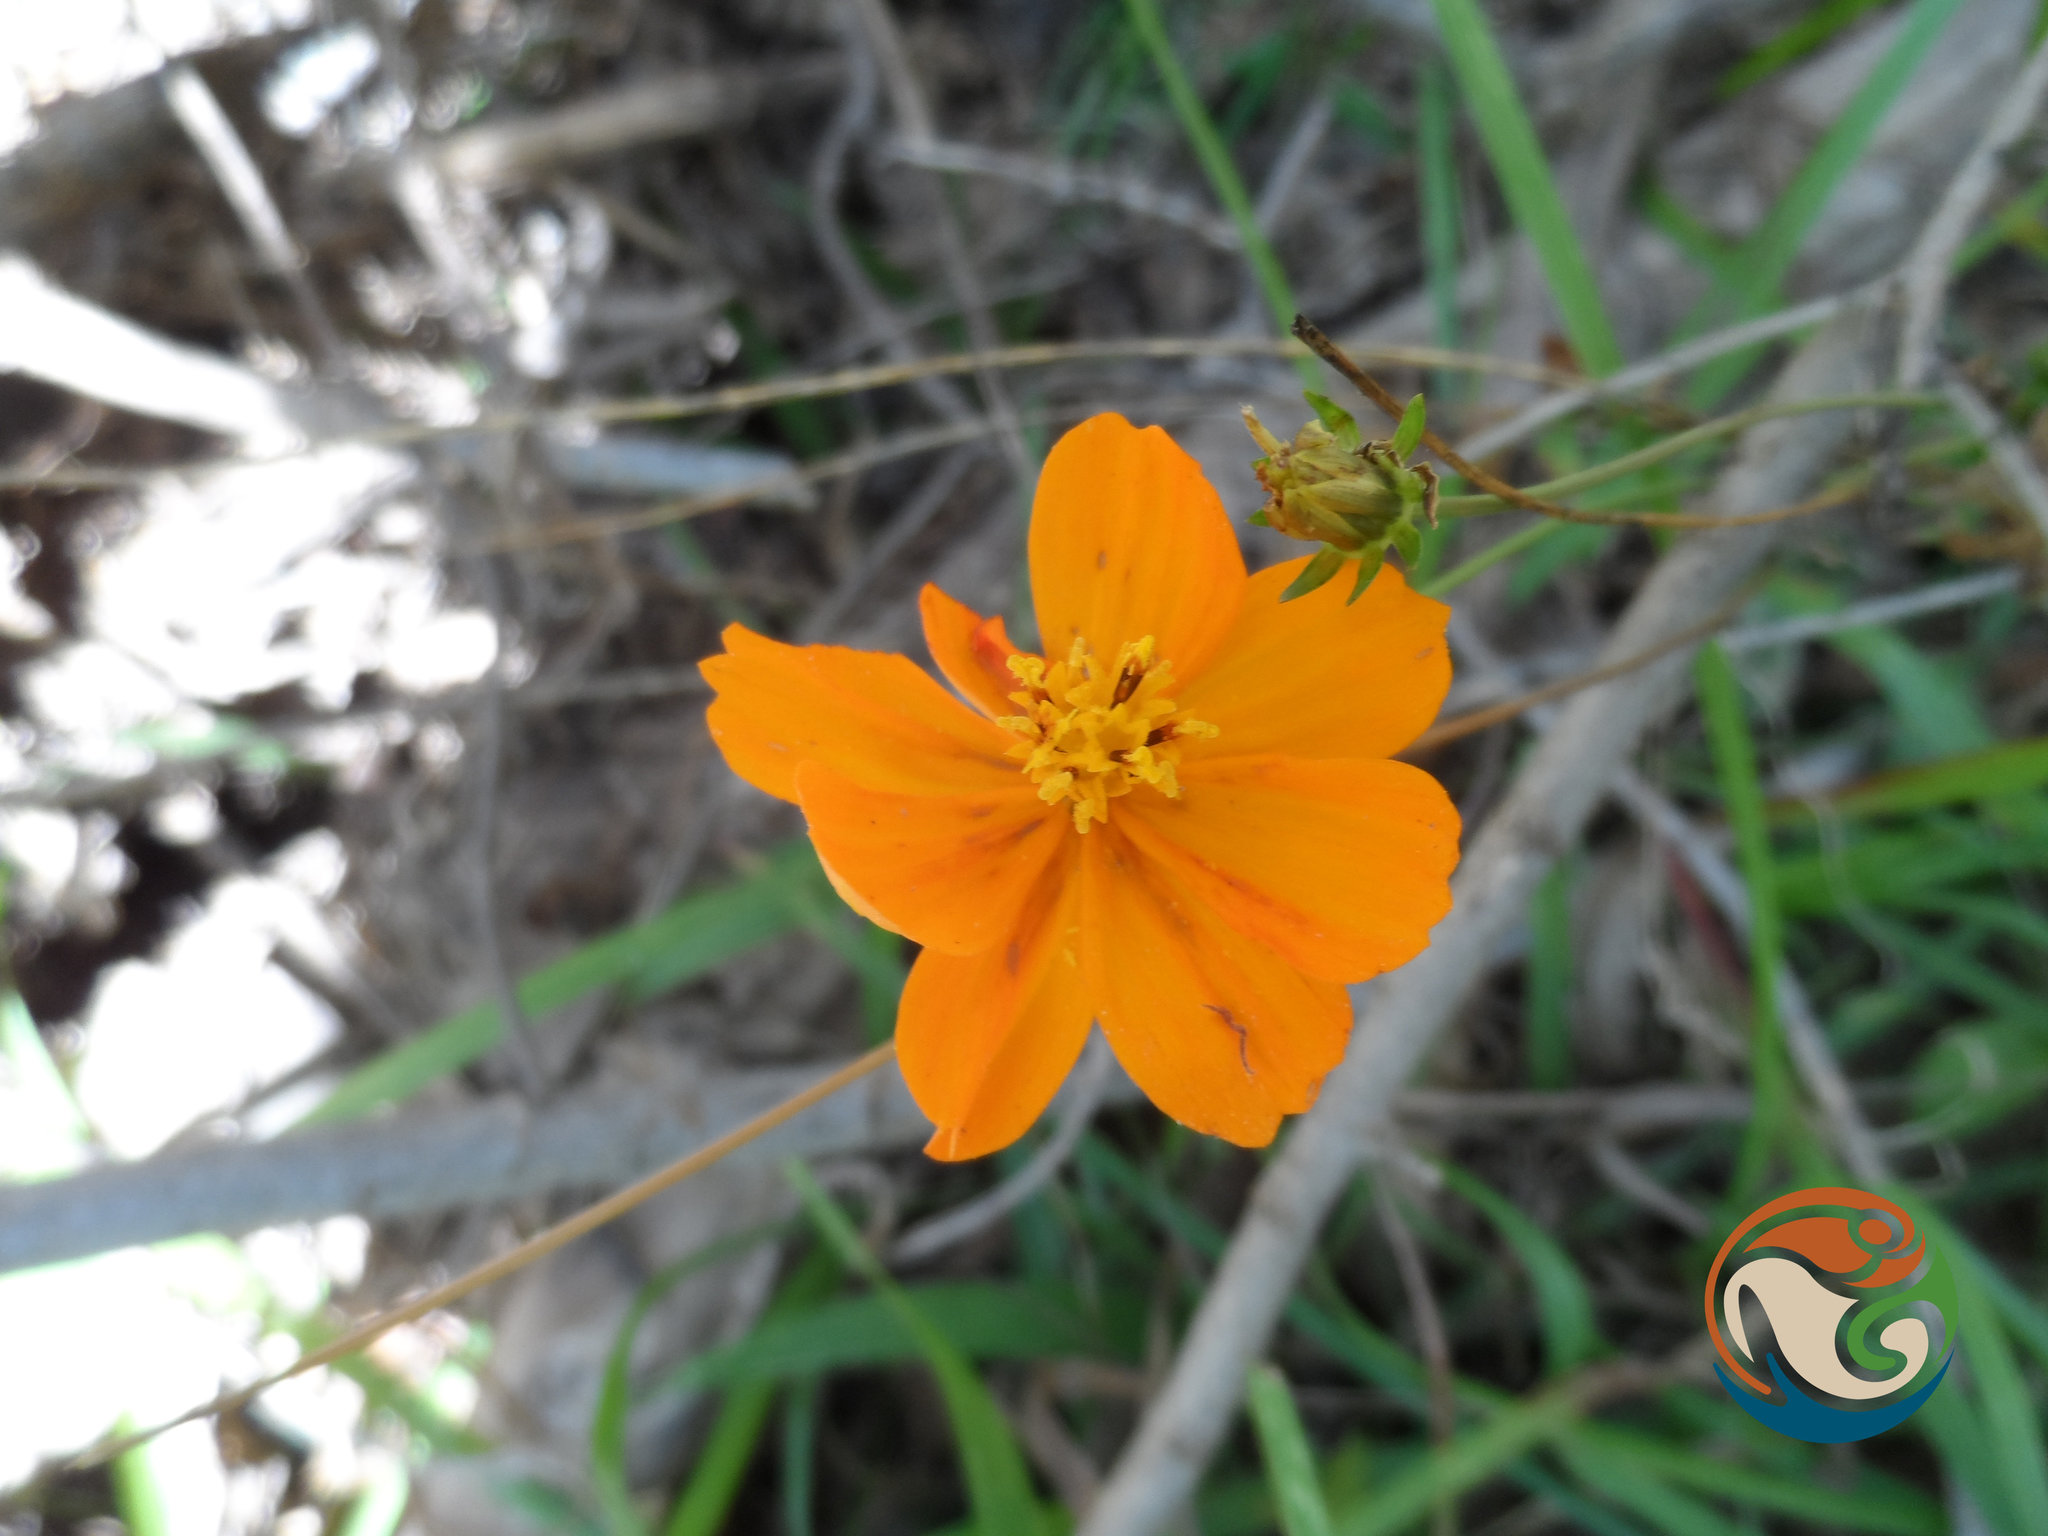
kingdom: Plantae
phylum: Tracheophyta
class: Magnoliopsida
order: Asterales
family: Asteraceae
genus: Cosmos
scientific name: Cosmos sulphureus
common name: Sulphur cosmos
